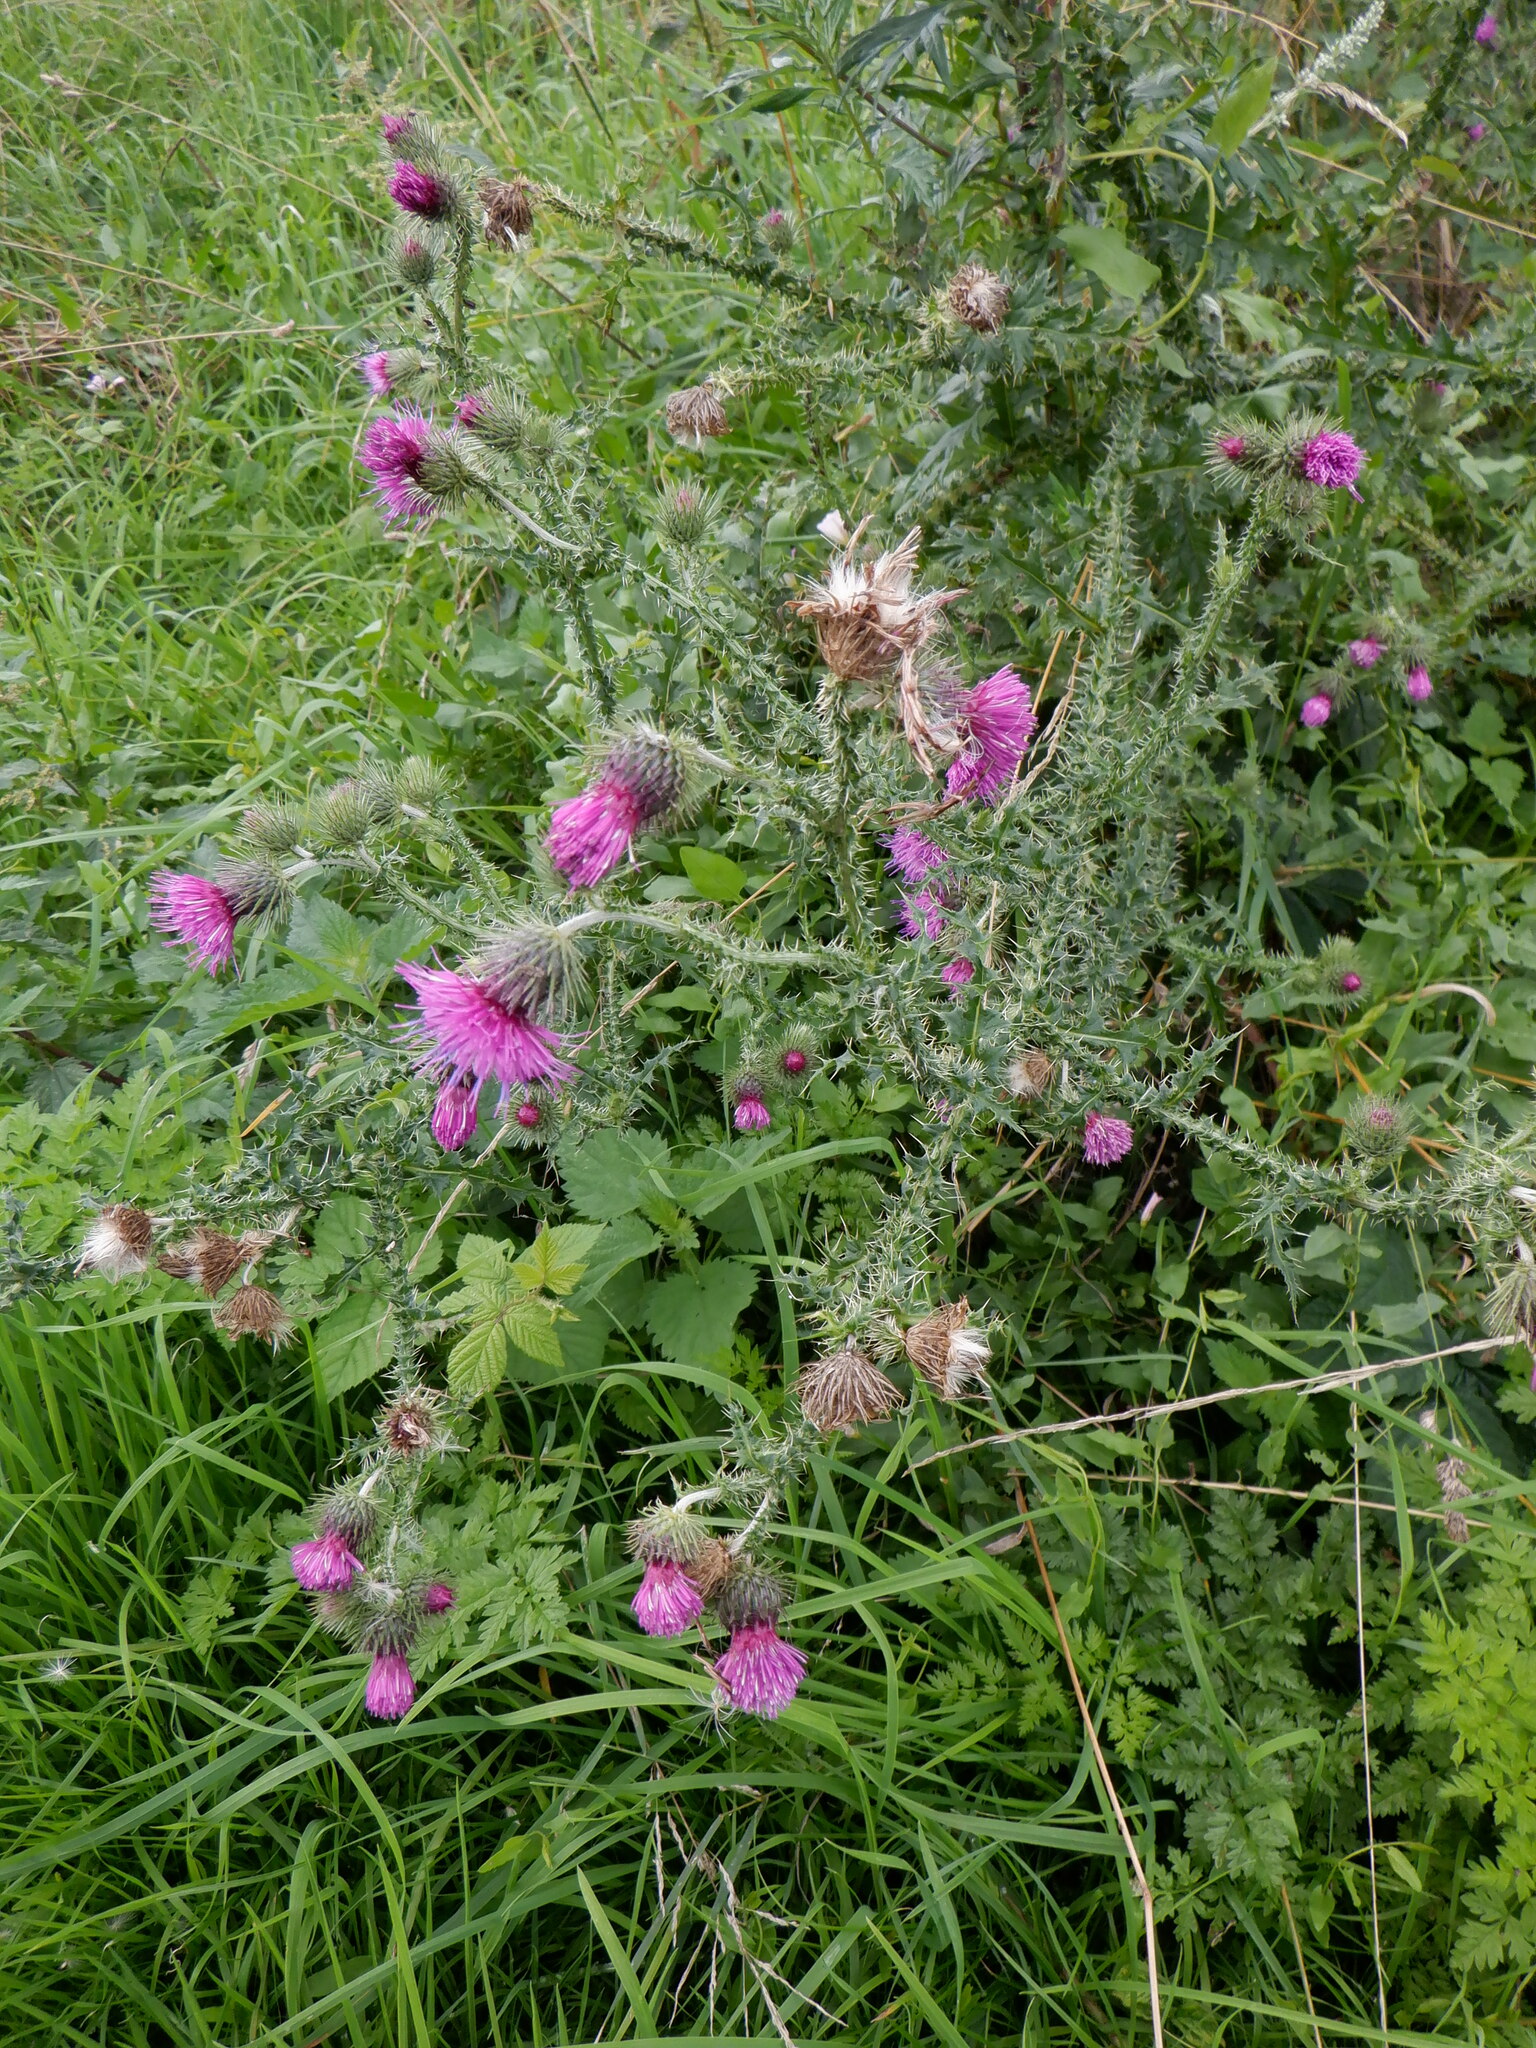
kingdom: Plantae
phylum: Tracheophyta
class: Magnoliopsida
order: Asterales
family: Asteraceae
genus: Carduus
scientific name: Carduus crispus
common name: Welted thistle
